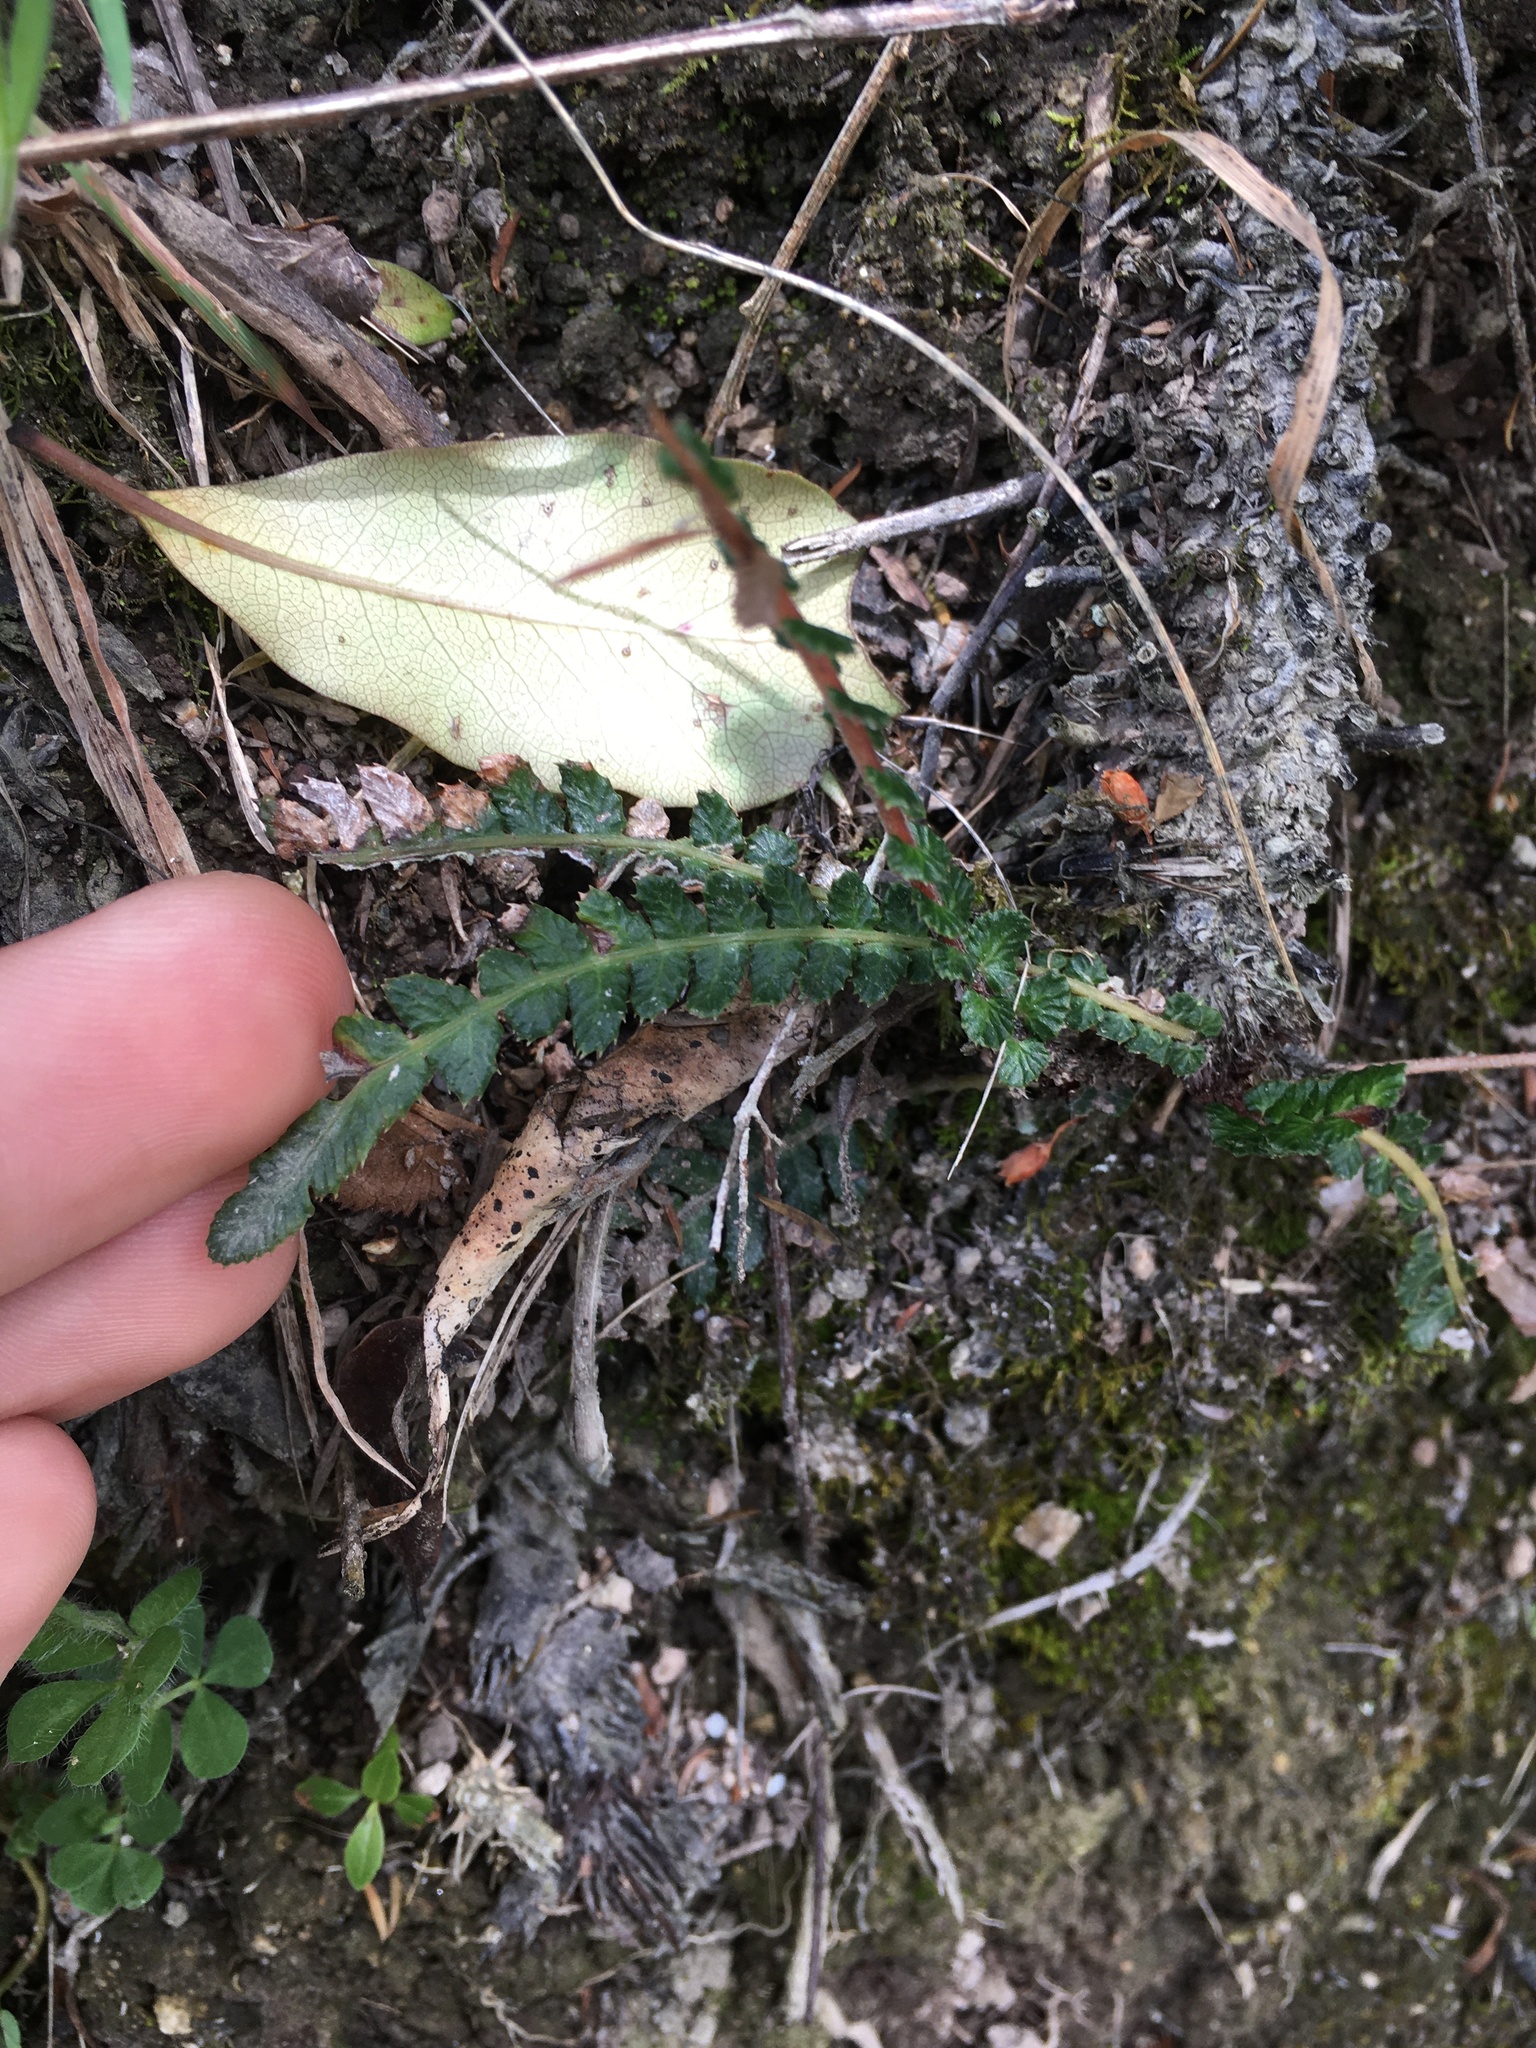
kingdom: Plantae
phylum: Tracheophyta
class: Polypodiopsida
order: Polypodiales
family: Blechnaceae
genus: Austroblechnum
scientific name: Austroblechnum membranaceum
